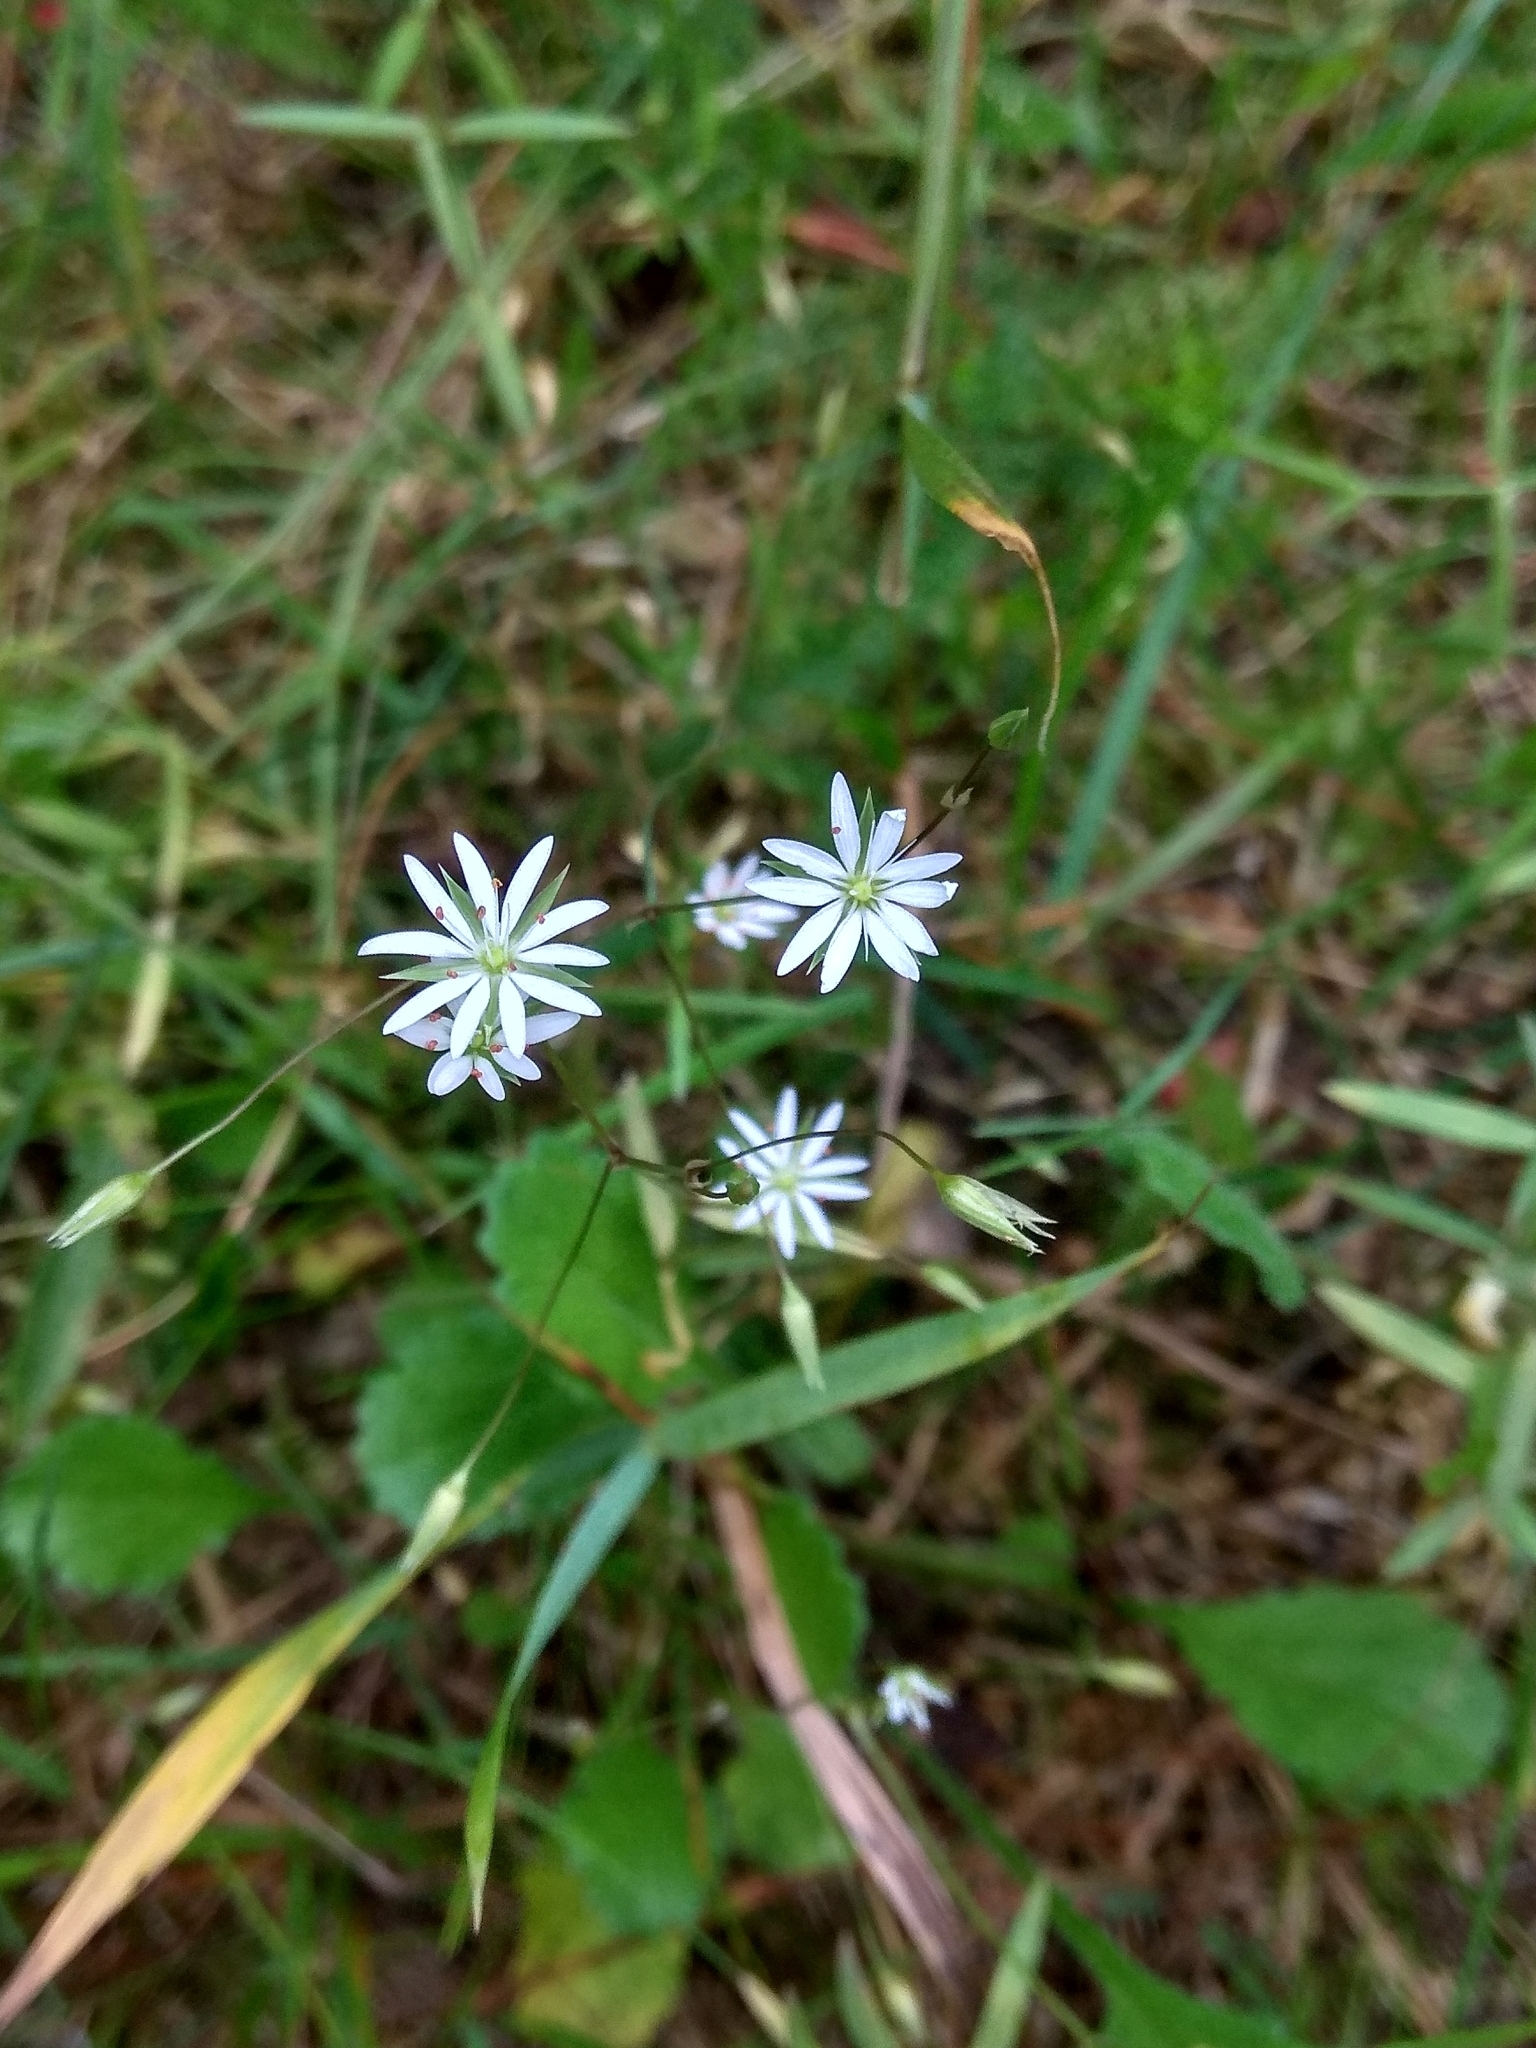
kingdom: Plantae
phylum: Tracheophyta
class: Magnoliopsida
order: Caryophyllales
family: Caryophyllaceae
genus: Stellaria
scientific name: Stellaria graminea
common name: Grass-like starwort
